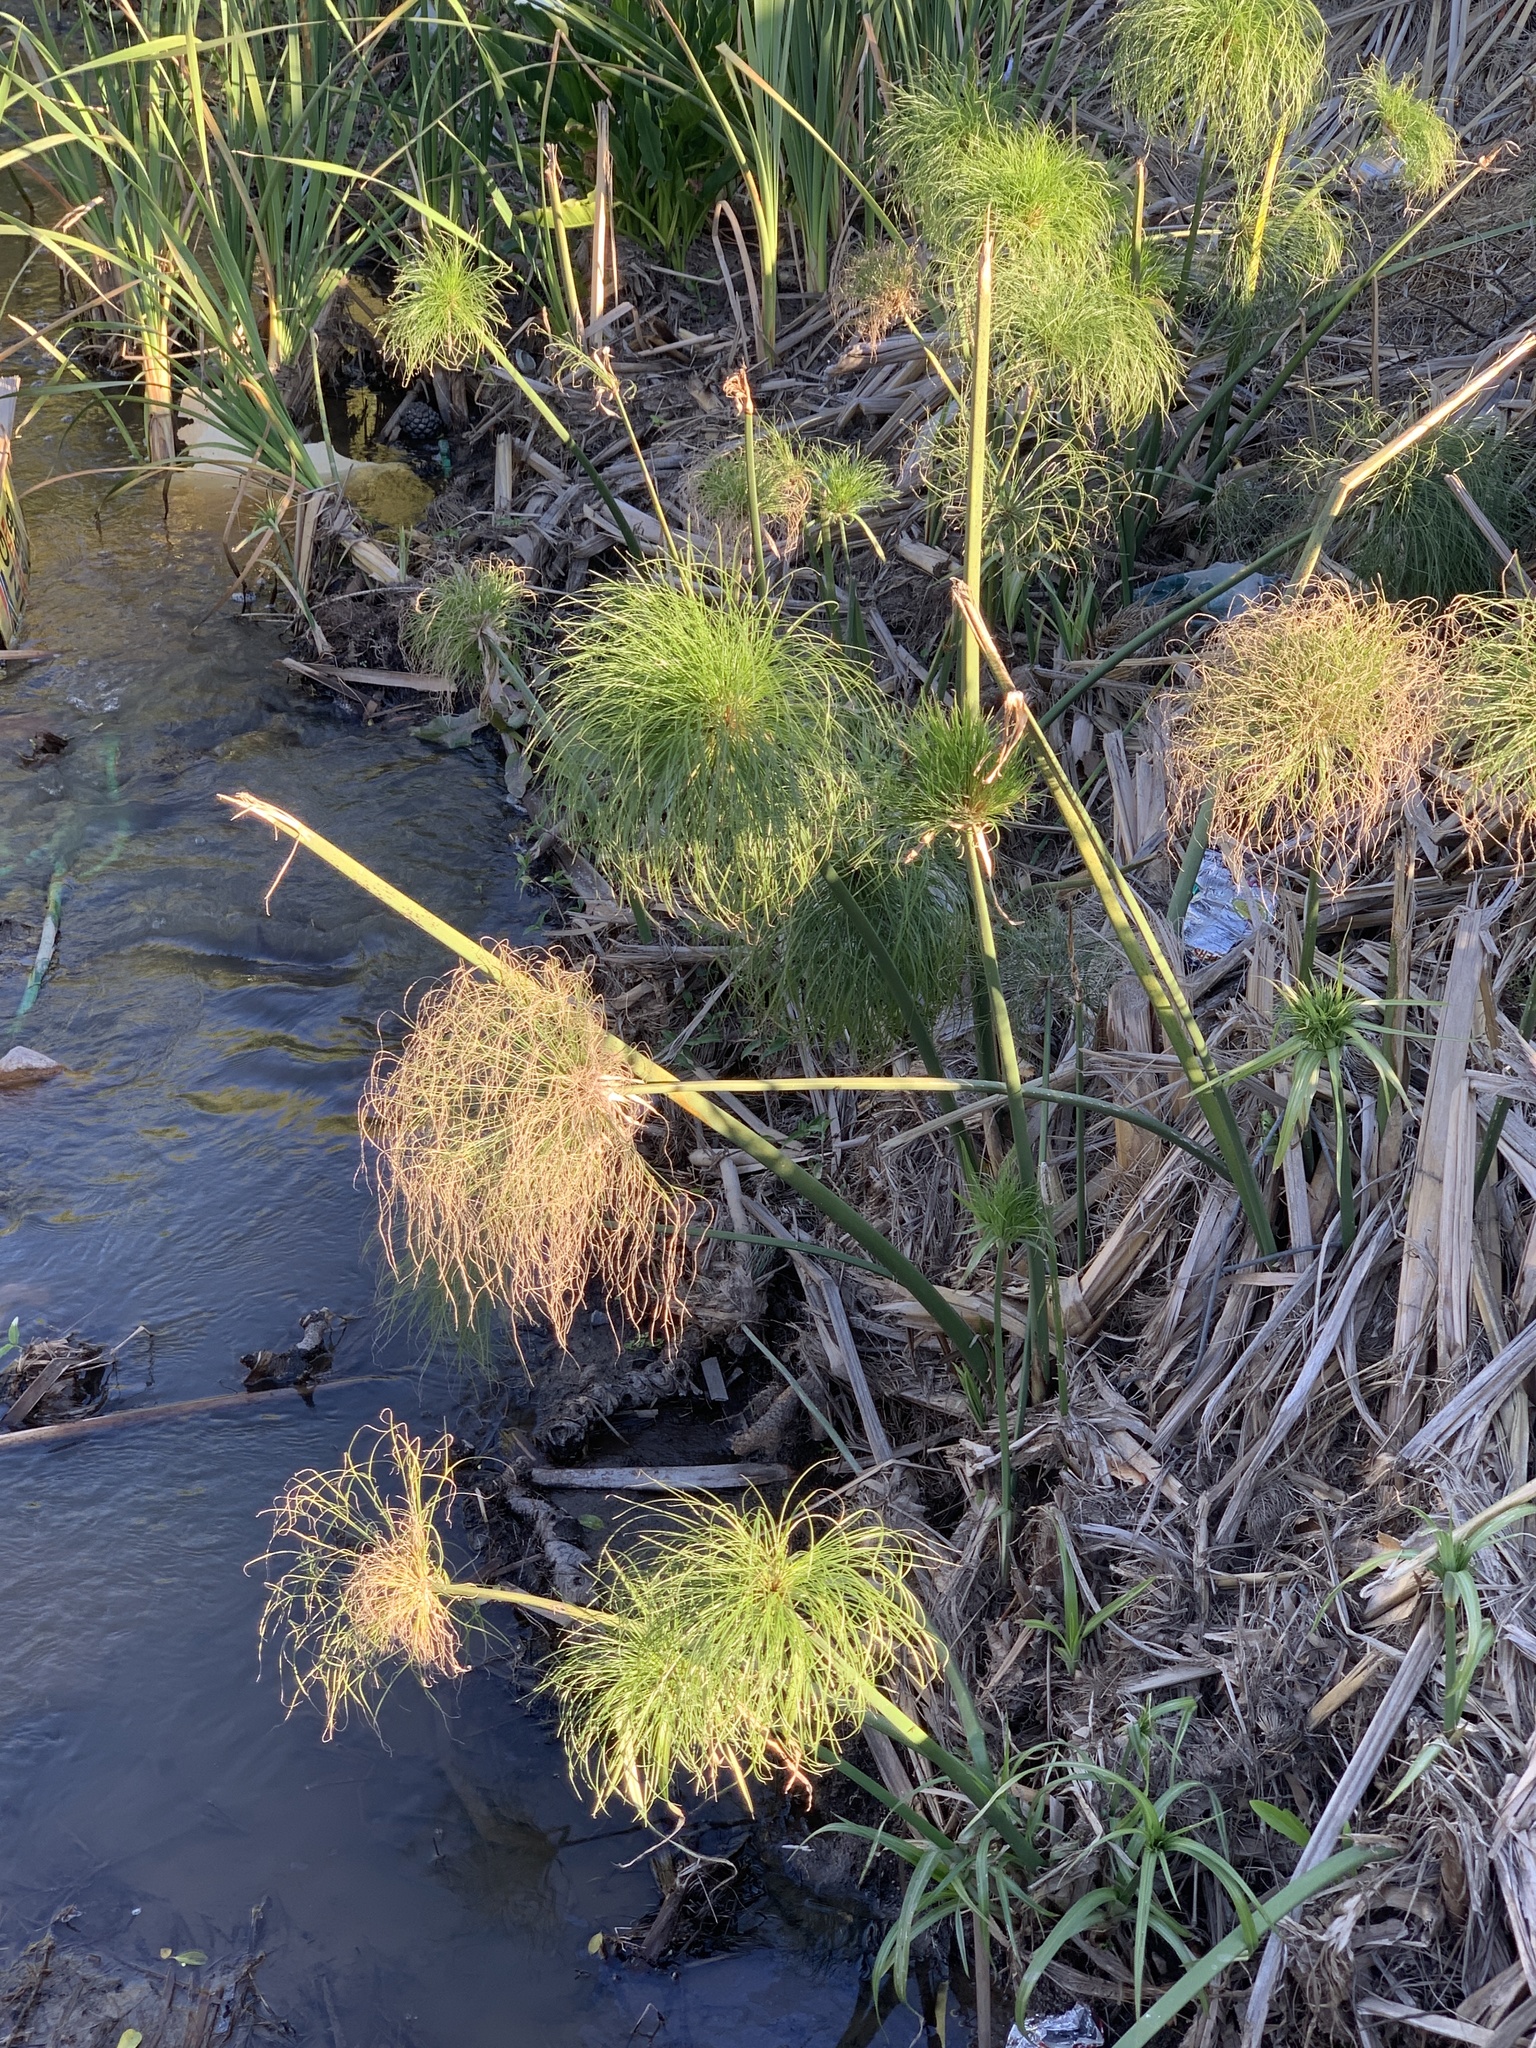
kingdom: Plantae
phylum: Tracheophyta
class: Liliopsida
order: Poales
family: Cyperaceae
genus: Cyperus
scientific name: Cyperus papyrus
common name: Papyrus
